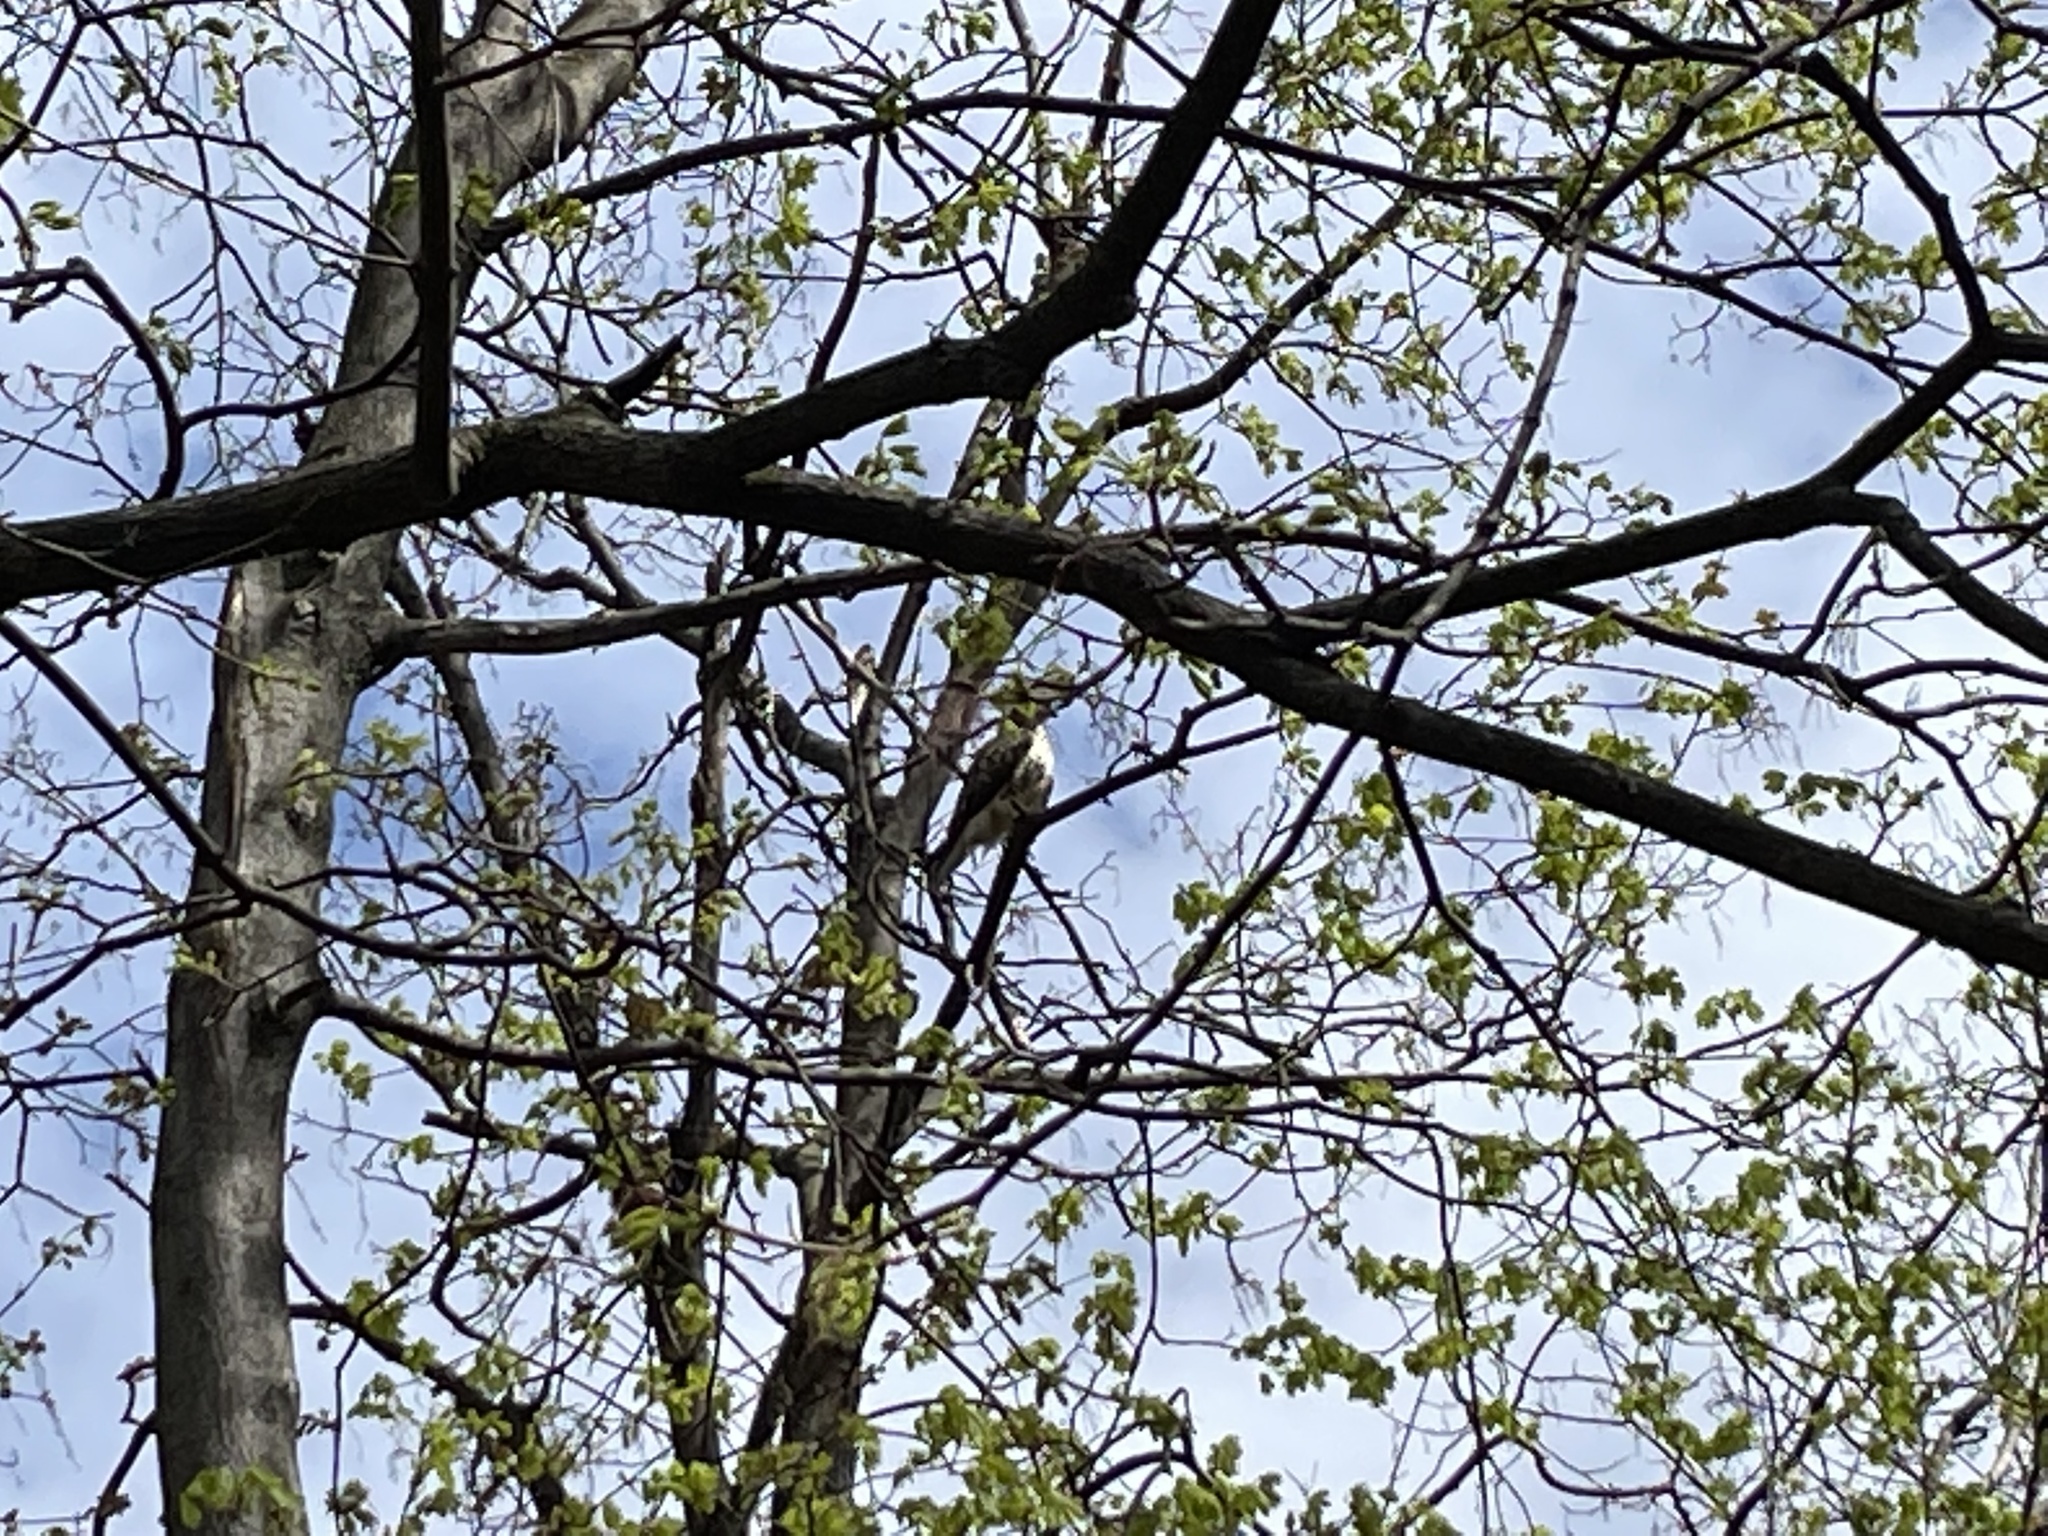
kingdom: Animalia
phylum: Chordata
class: Aves
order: Accipitriformes
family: Accipitridae
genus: Buteo
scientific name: Buteo jamaicensis
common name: Red-tailed hawk
